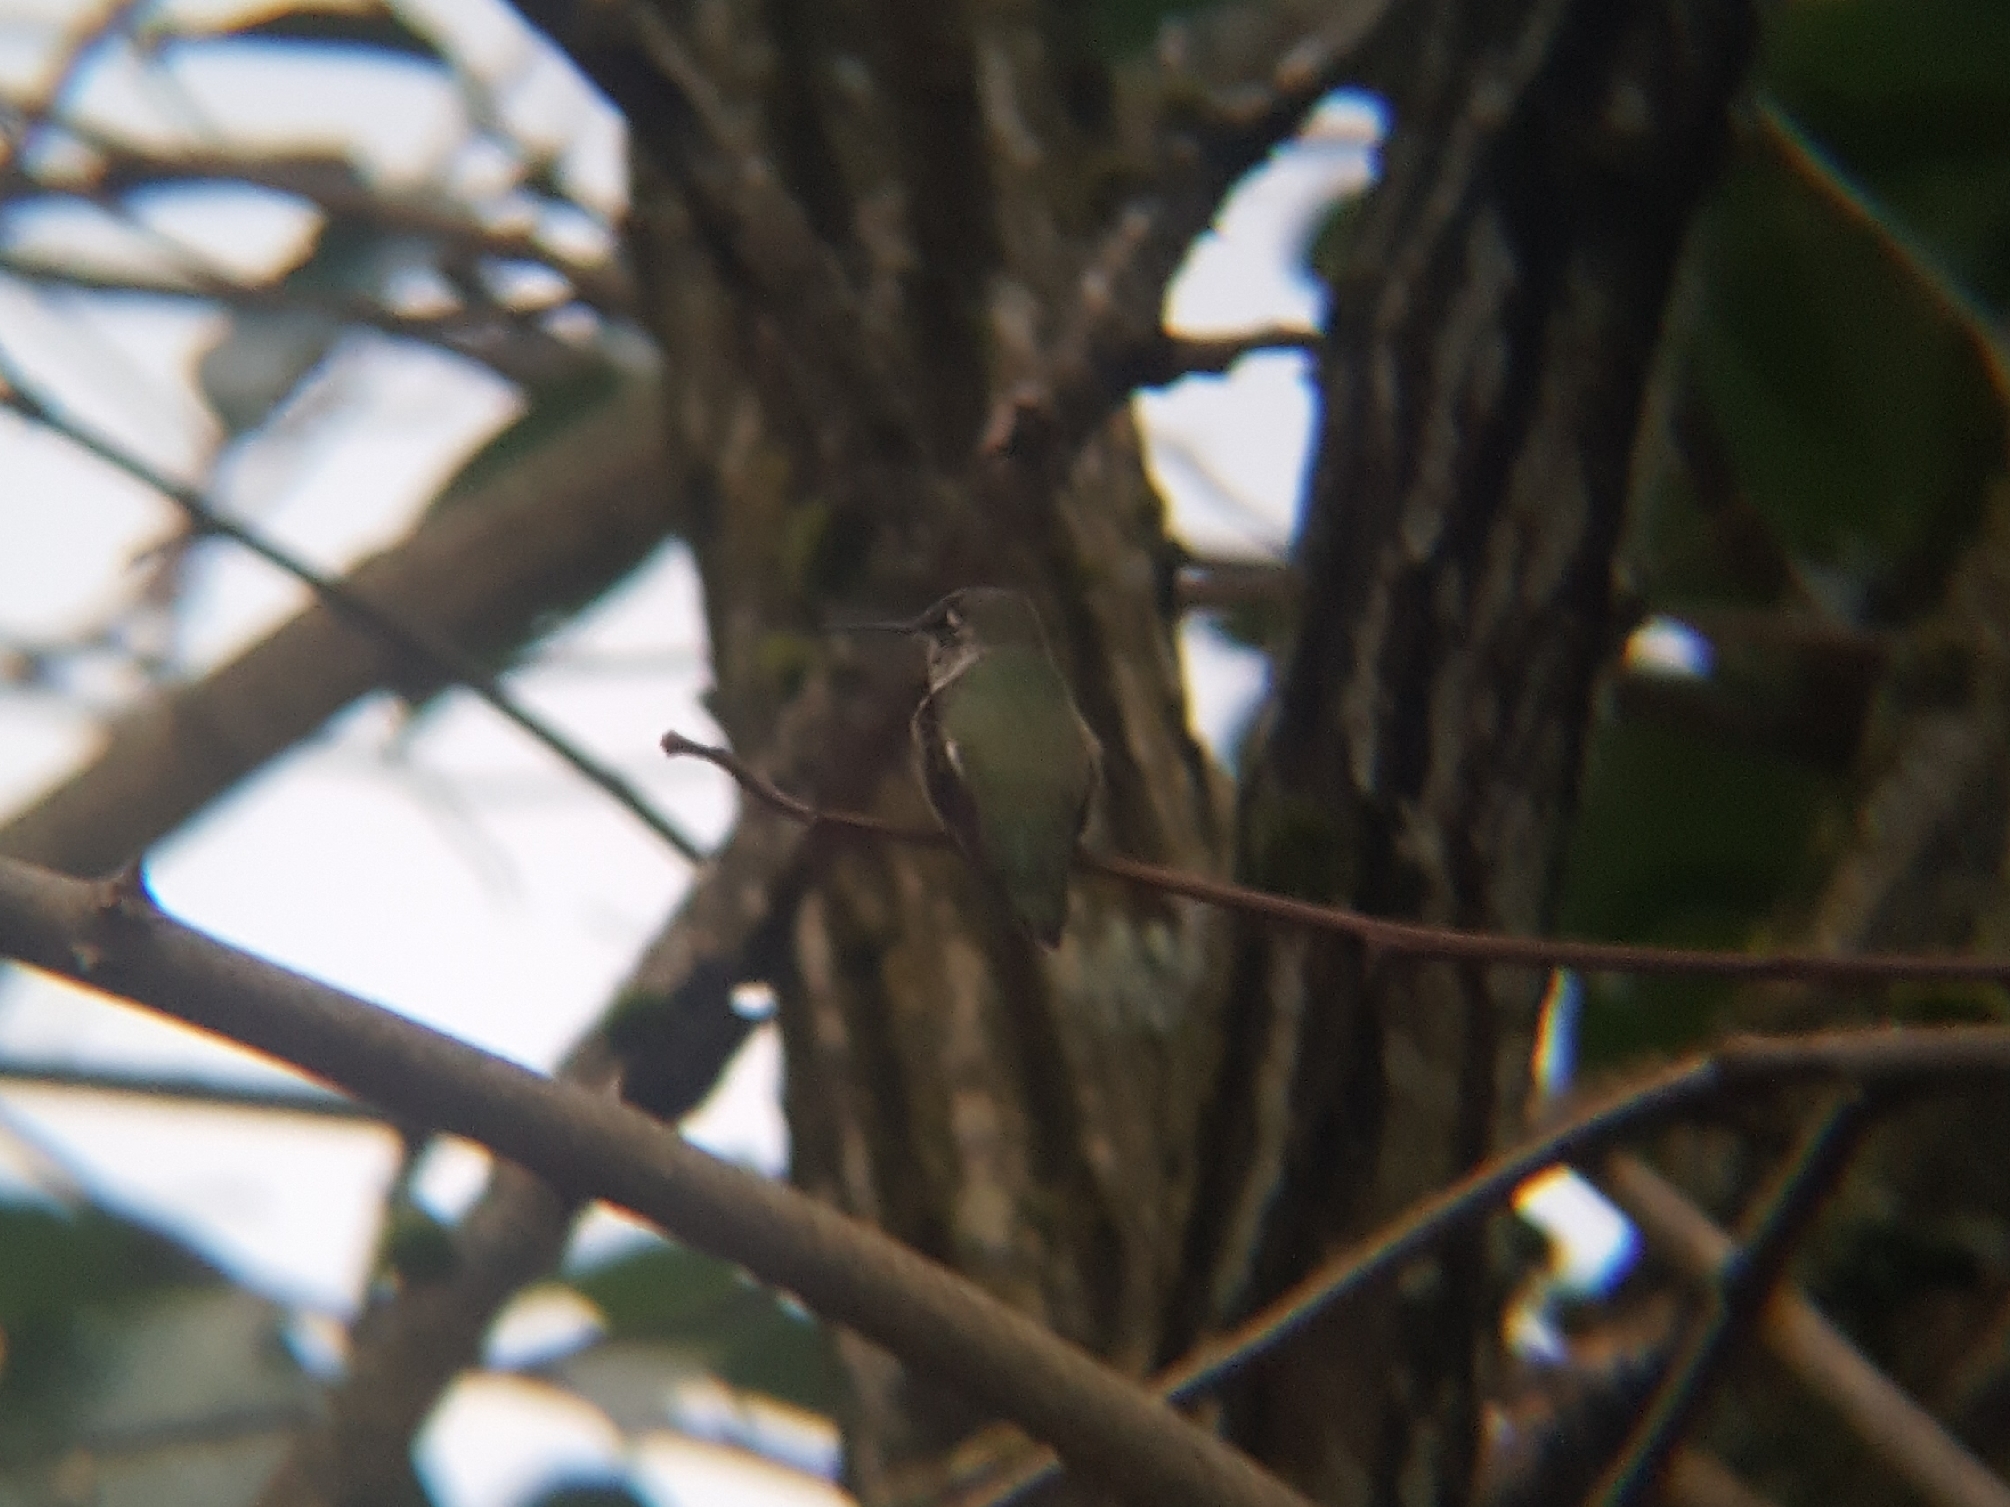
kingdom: Animalia
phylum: Chordata
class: Aves
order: Apodiformes
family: Trochilidae
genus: Calypte
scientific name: Calypte anna
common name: Anna's hummingbird
